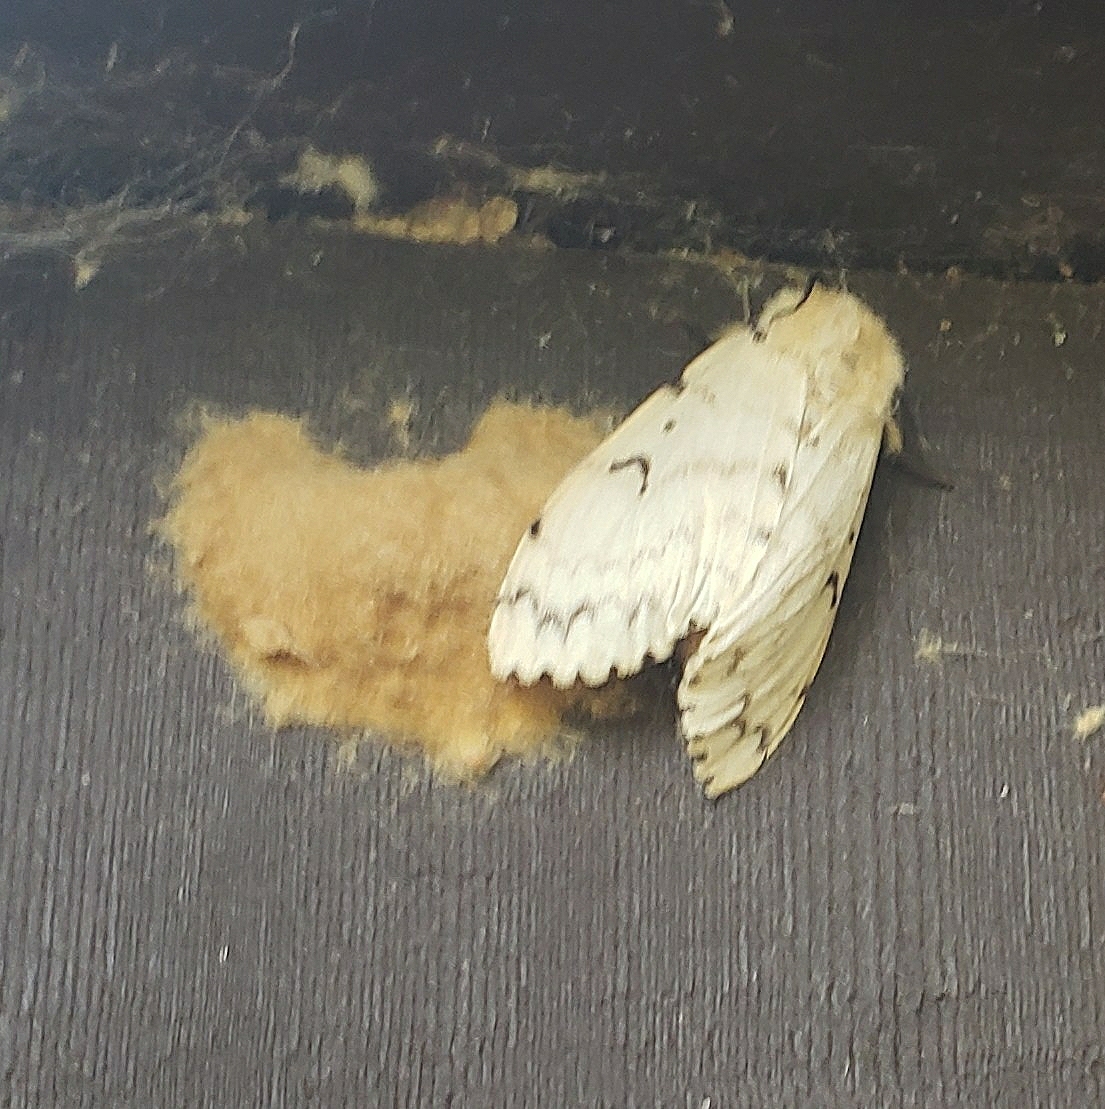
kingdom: Animalia
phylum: Arthropoda
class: Insecta
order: Lepidoptera
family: Erebidae
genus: Lymantria
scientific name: Lymantria dispar
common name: Gypsy moth
